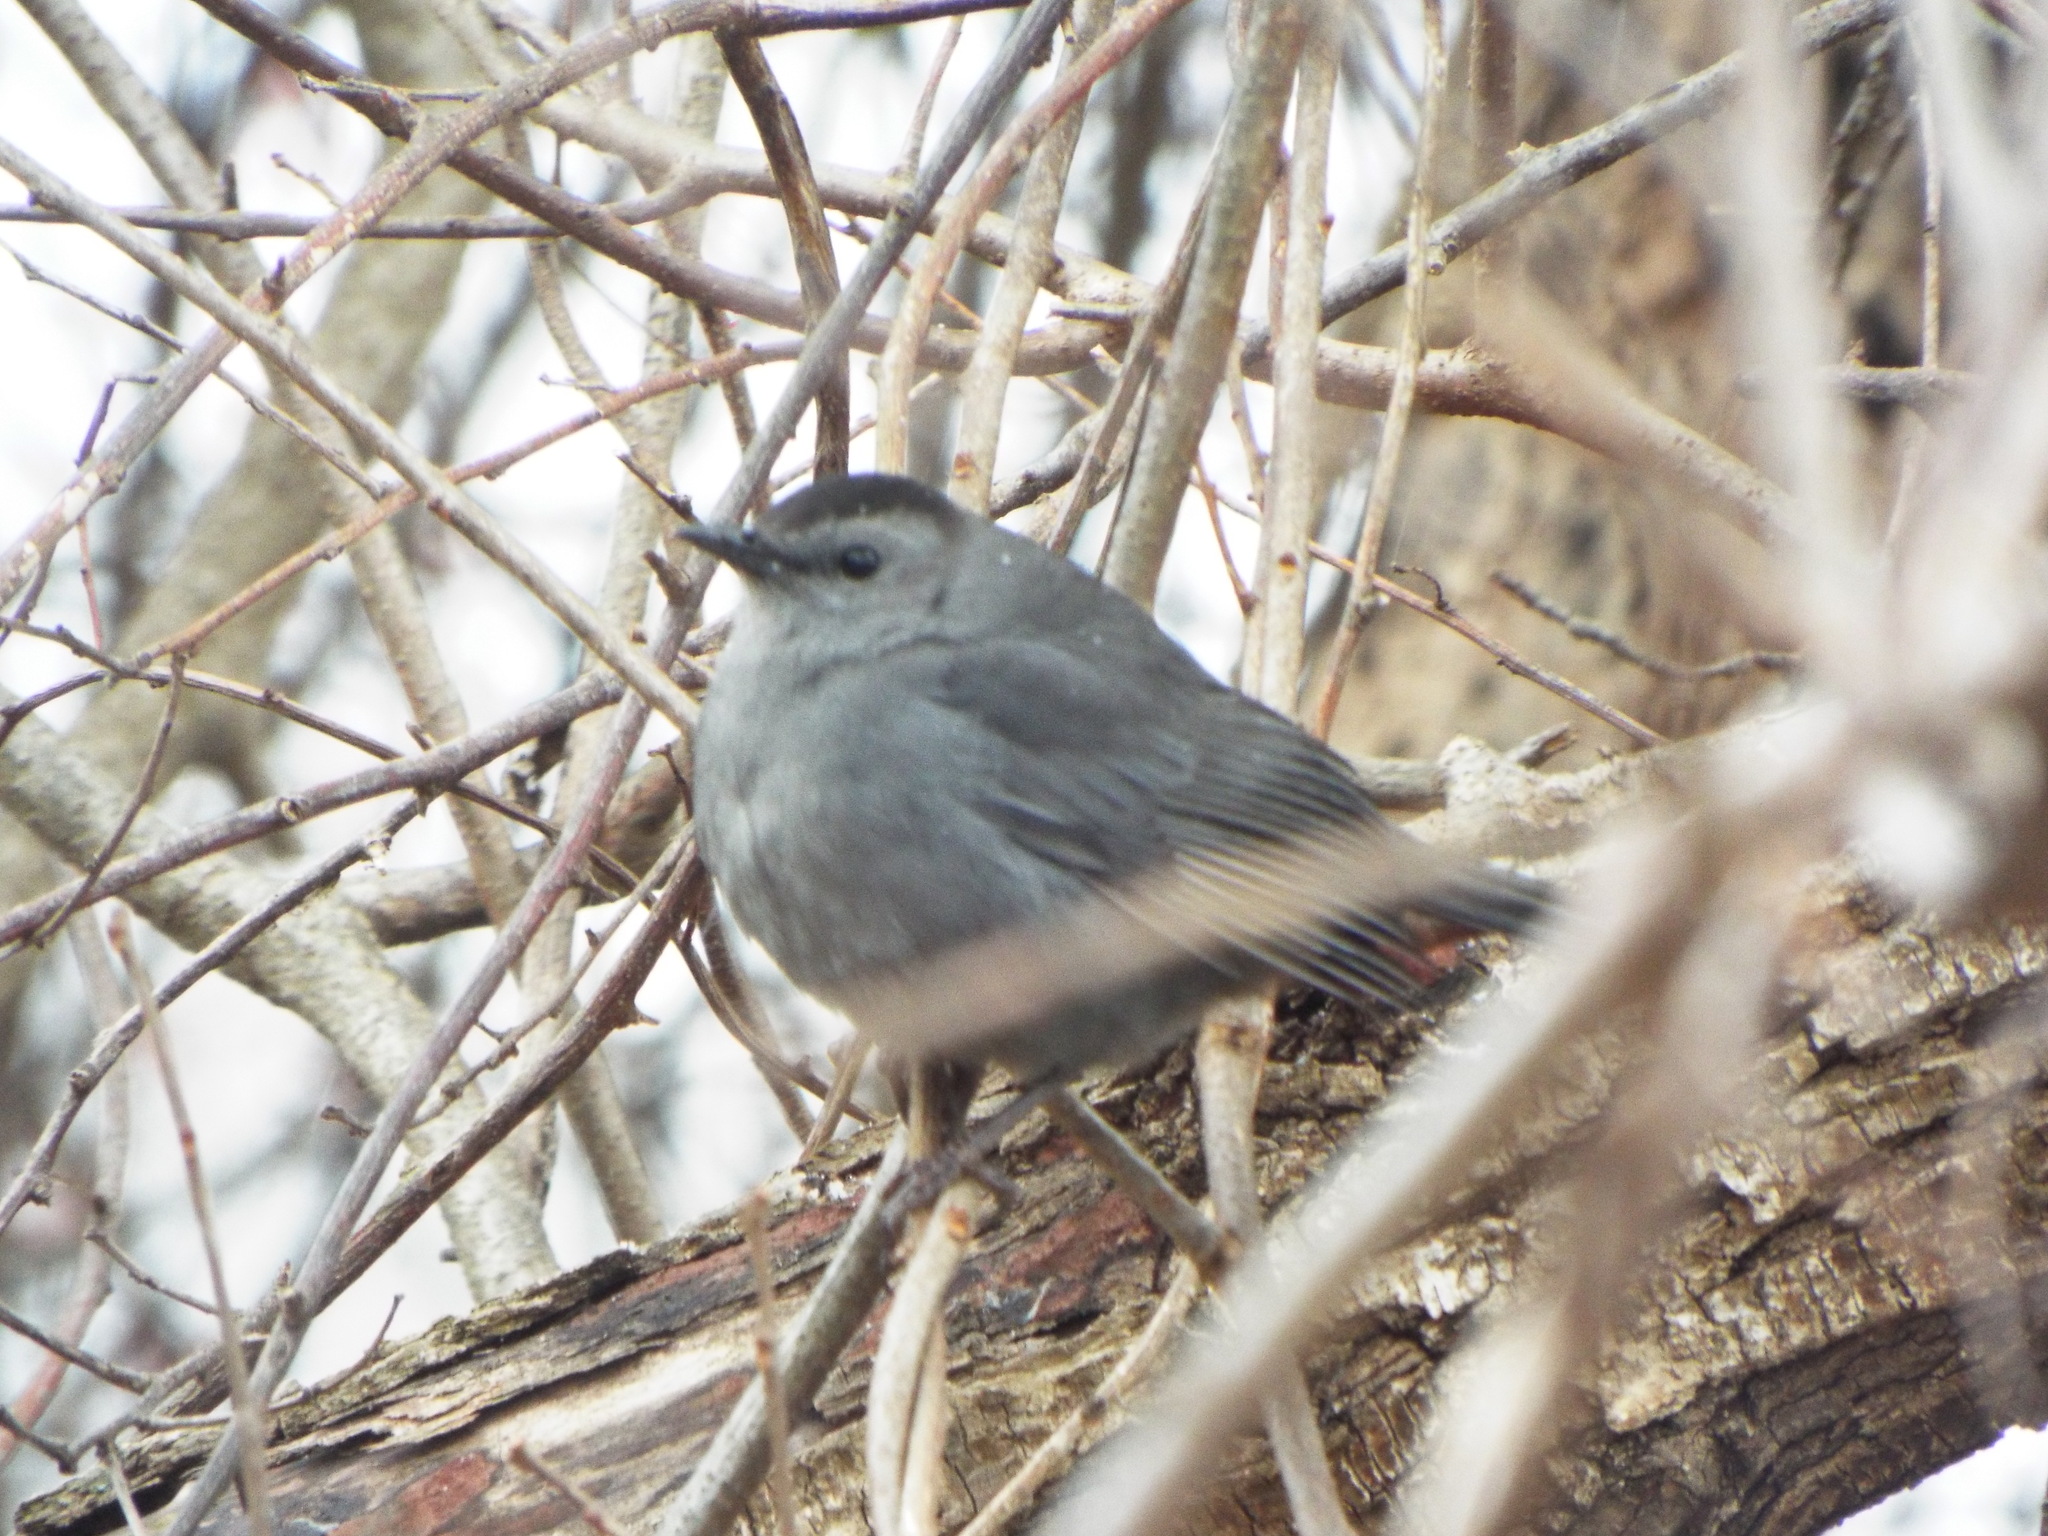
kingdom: Animalia
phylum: Chordata
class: Aves
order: Passeriformes
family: Mimidae
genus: Dumetella
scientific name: Dumetella carolinensis
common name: Gray catbird
